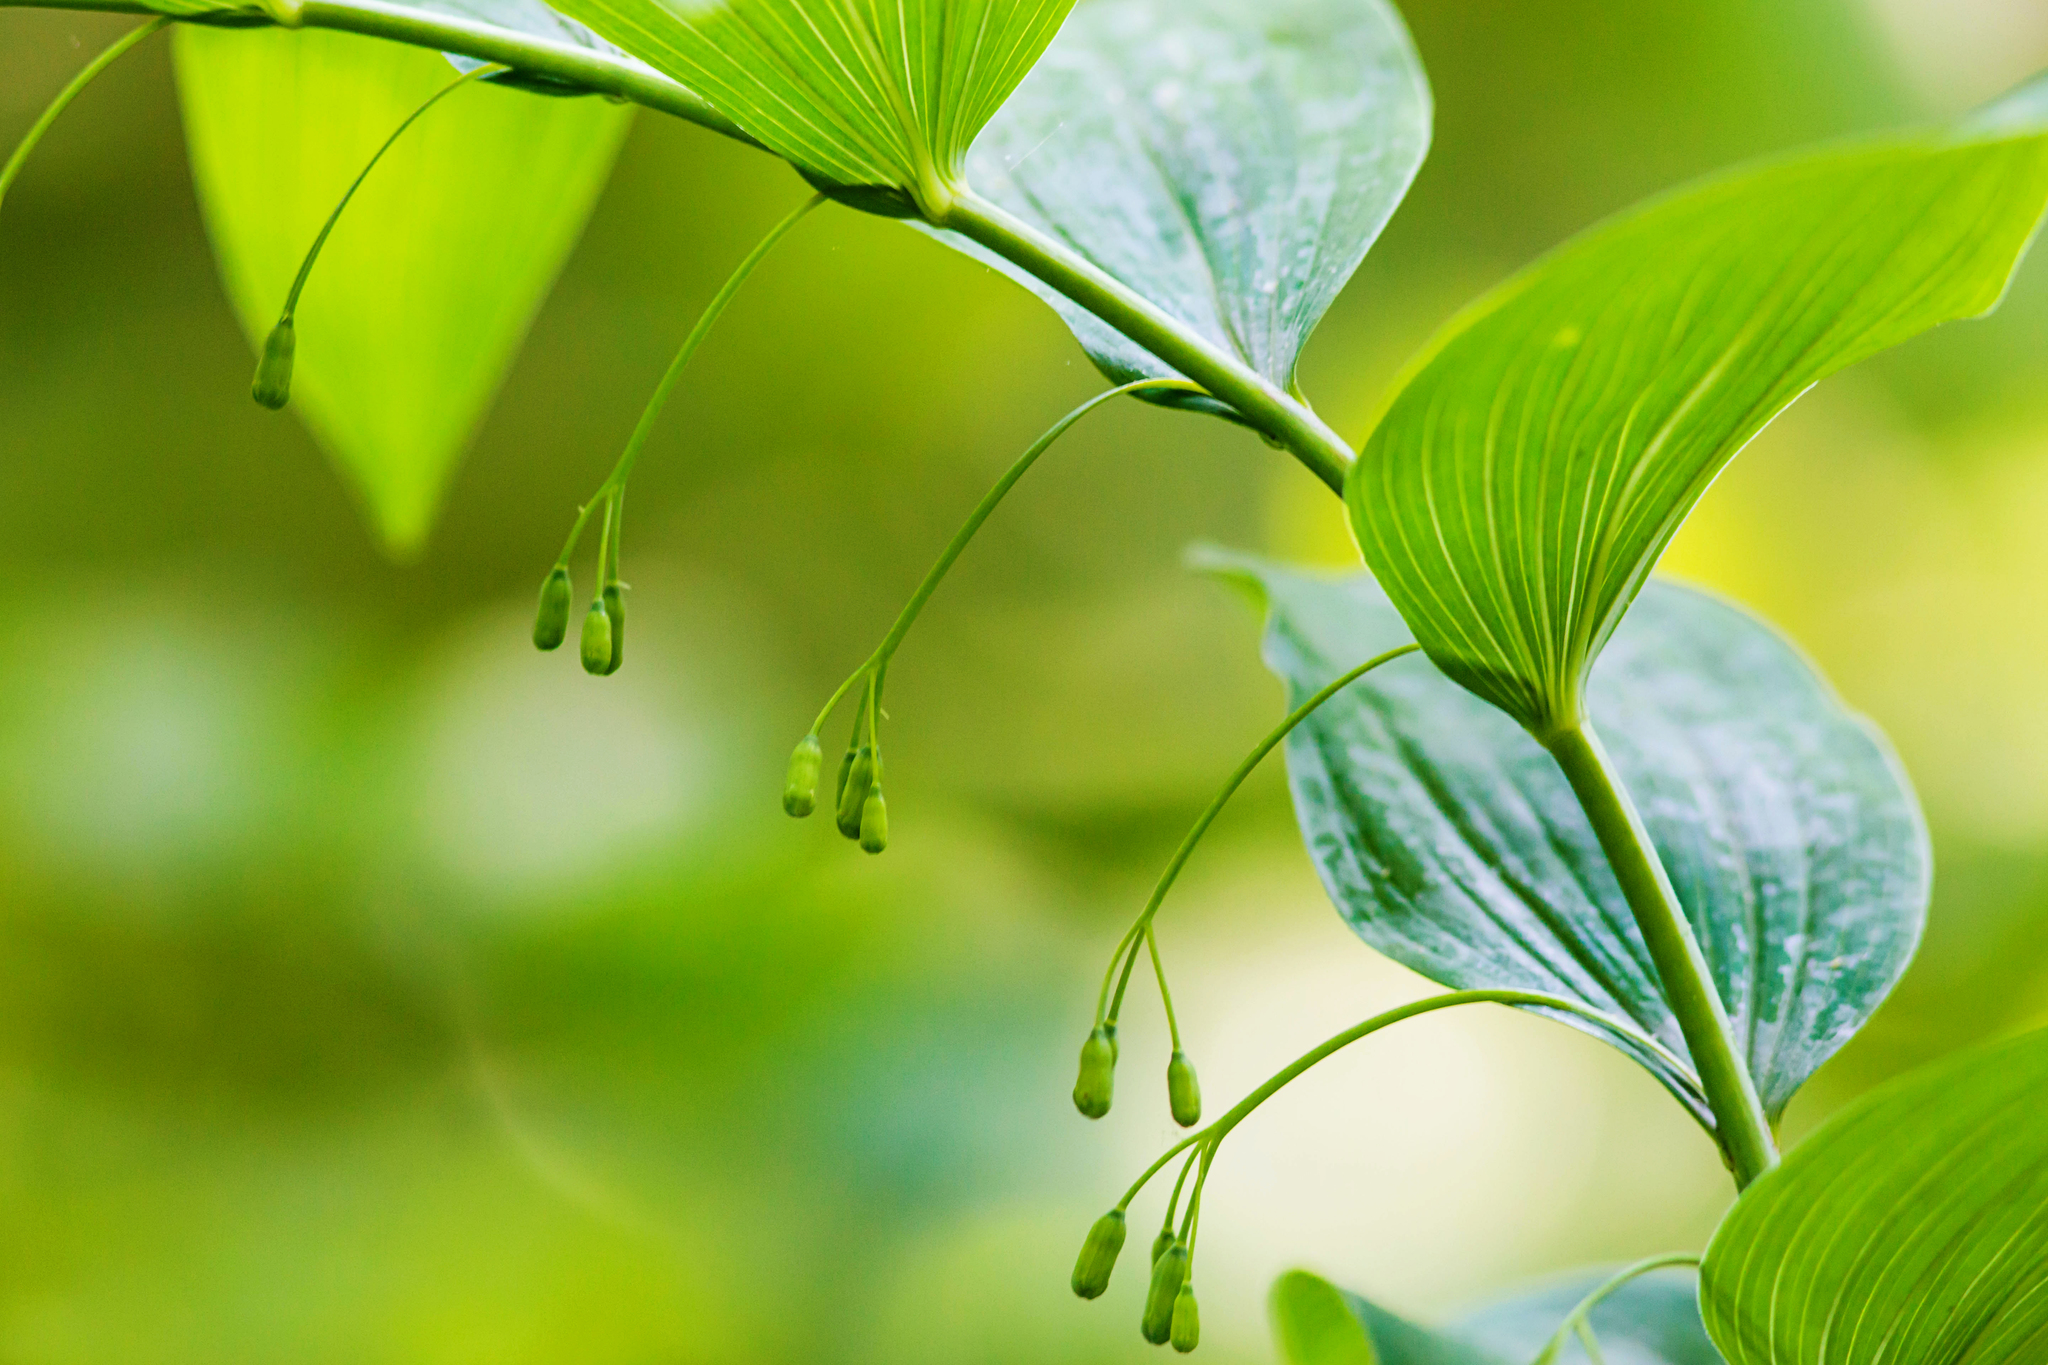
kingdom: Plantae
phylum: Tracheophyta
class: Liliopsida
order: Asparagales
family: Asparagaceae
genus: Polygonatum
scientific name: Polygonatum biflorum
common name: American solomon's-seal
